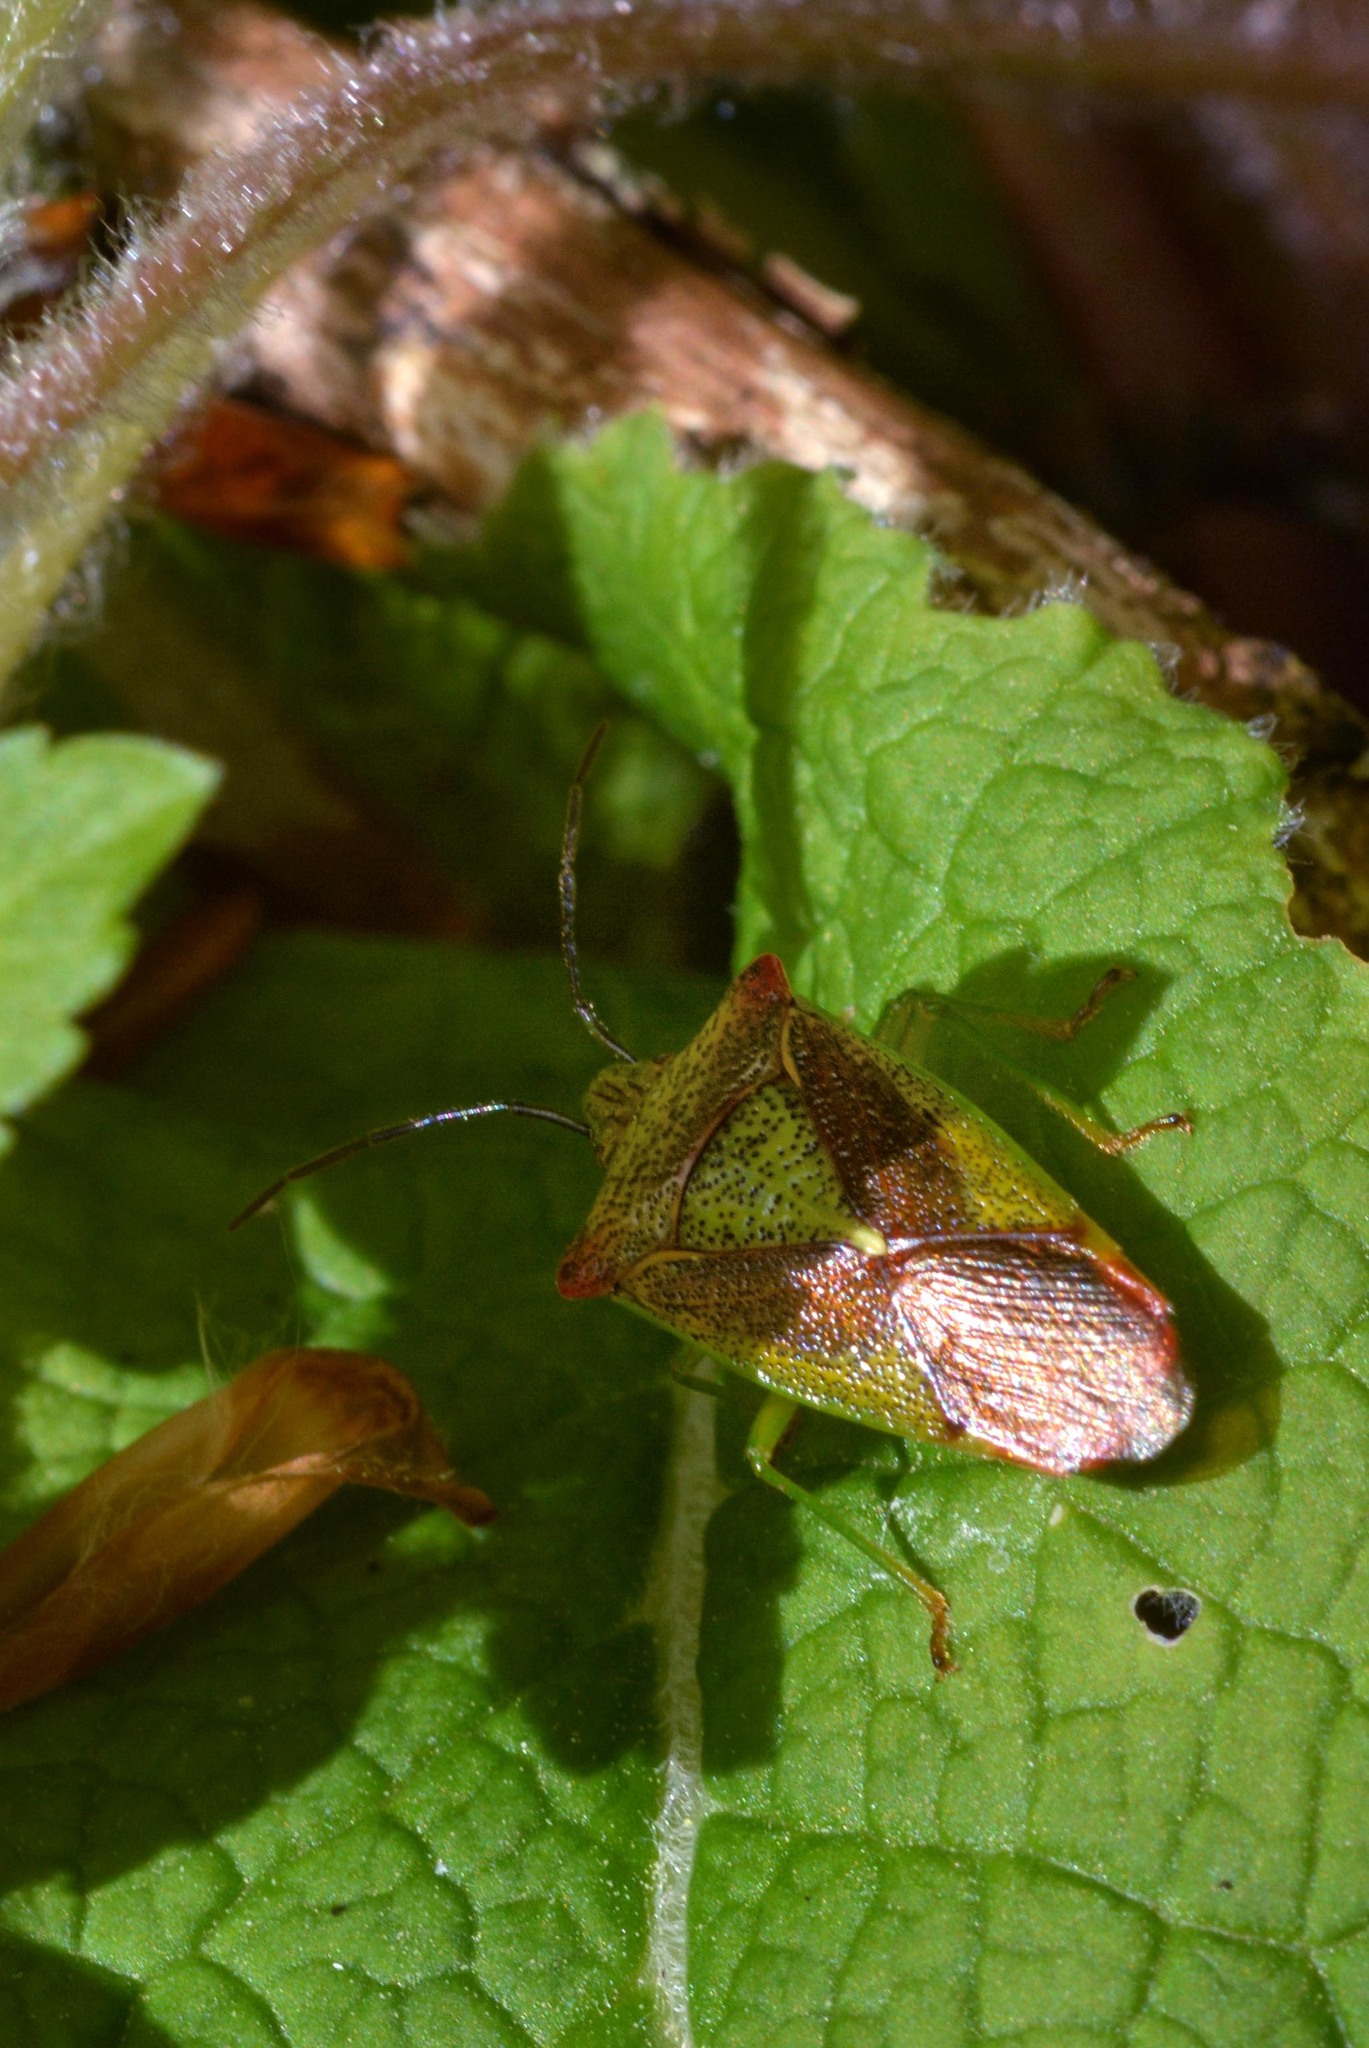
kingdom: Animalia
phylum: Arthropoda
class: Insecta
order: Hemiptera
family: Acanthosomatidae
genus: Acanthosoma
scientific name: Acanthosoma haemorrhoidale
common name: Hawthorn shieldbug
